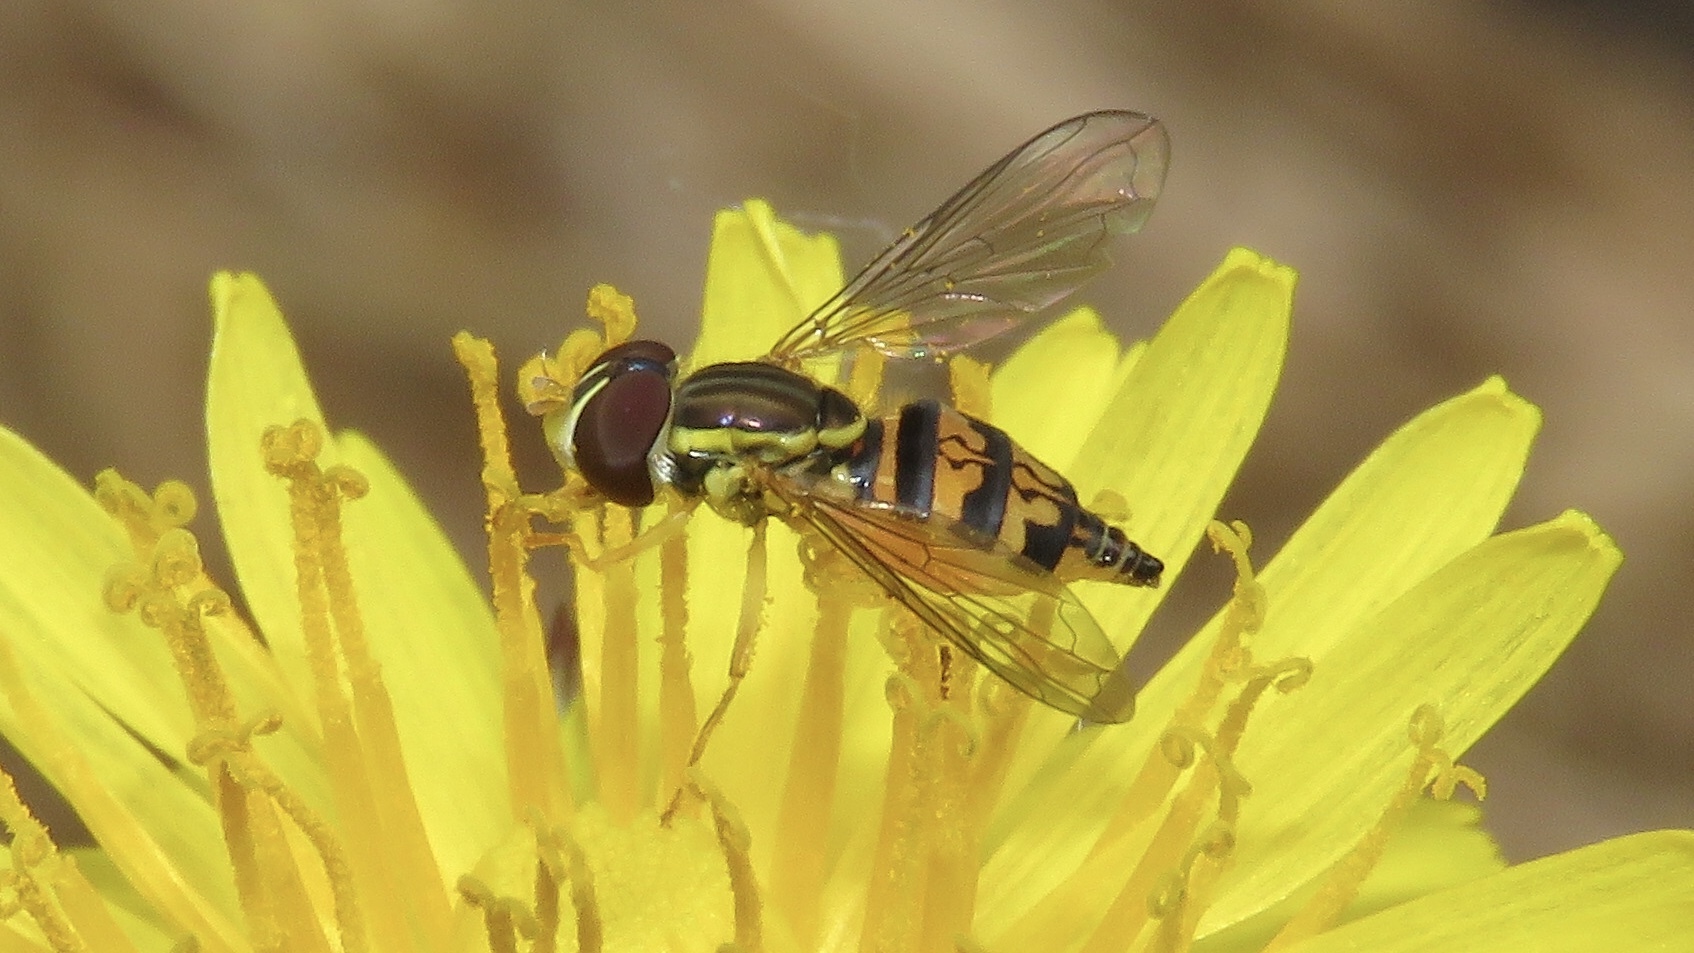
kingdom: Animalia
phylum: Arthropoda
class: Insecta
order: Diptera
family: Syrphidae
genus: Toxomerus
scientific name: Toxomerus geminatus
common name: Eastern calligrapher
